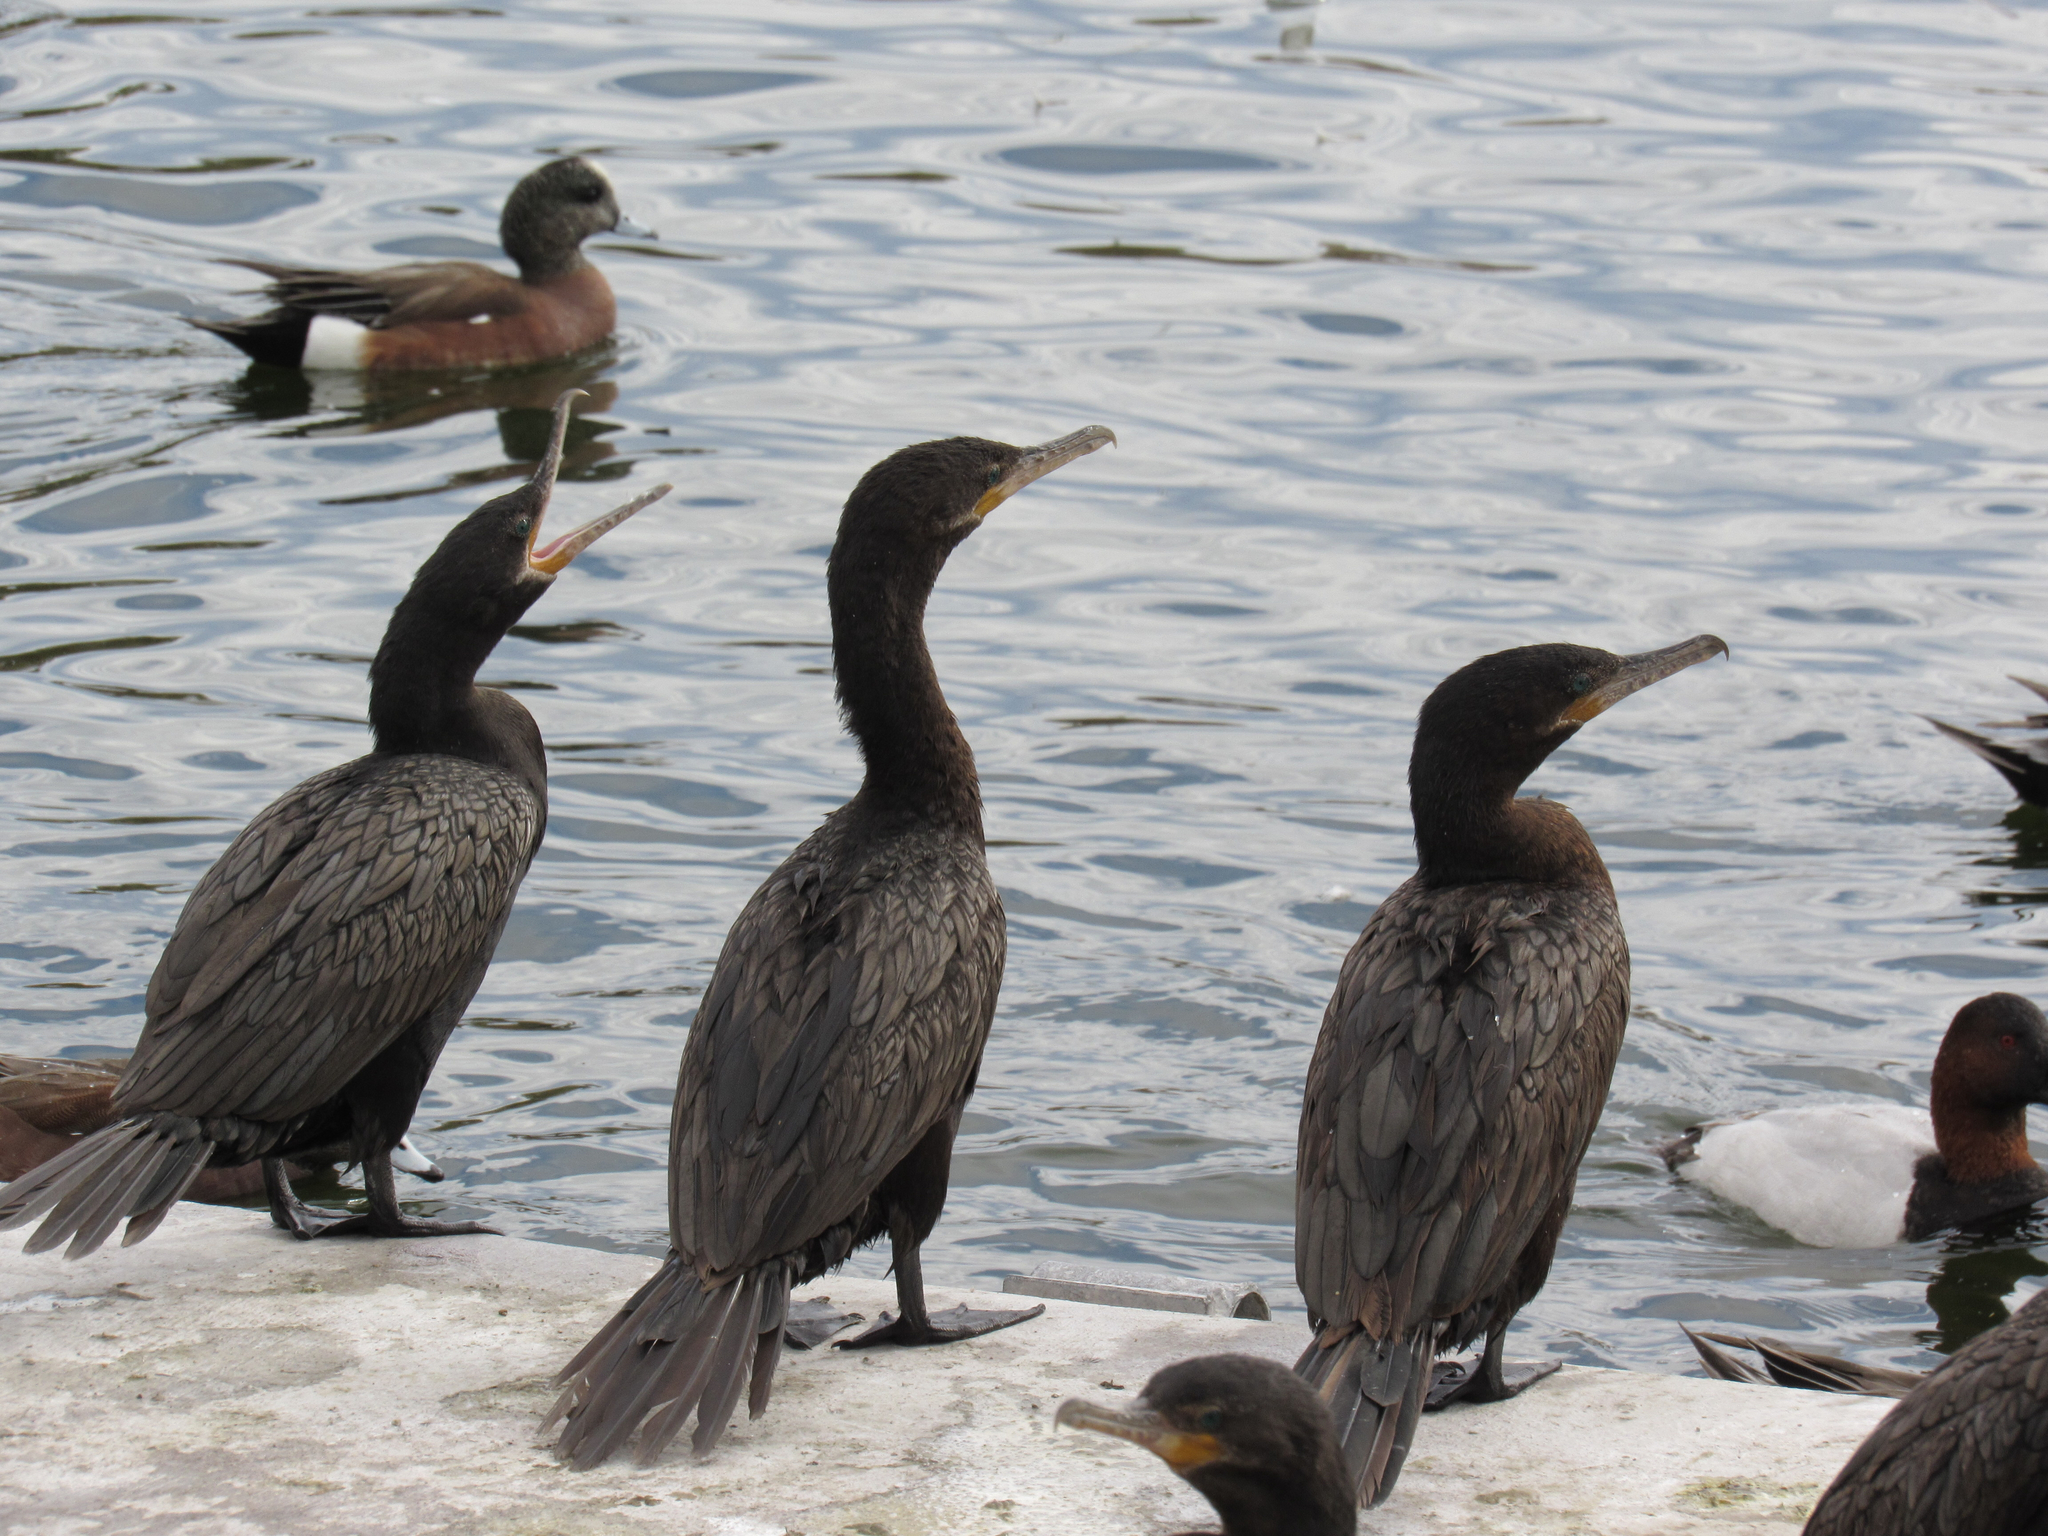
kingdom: Animalia
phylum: Chordata
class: Aves
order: Suliformes
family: Phalacrocoracidae
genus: Phalacrocorax
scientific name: Phalacrocorax brasilianus
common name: Neotropic cormorant
